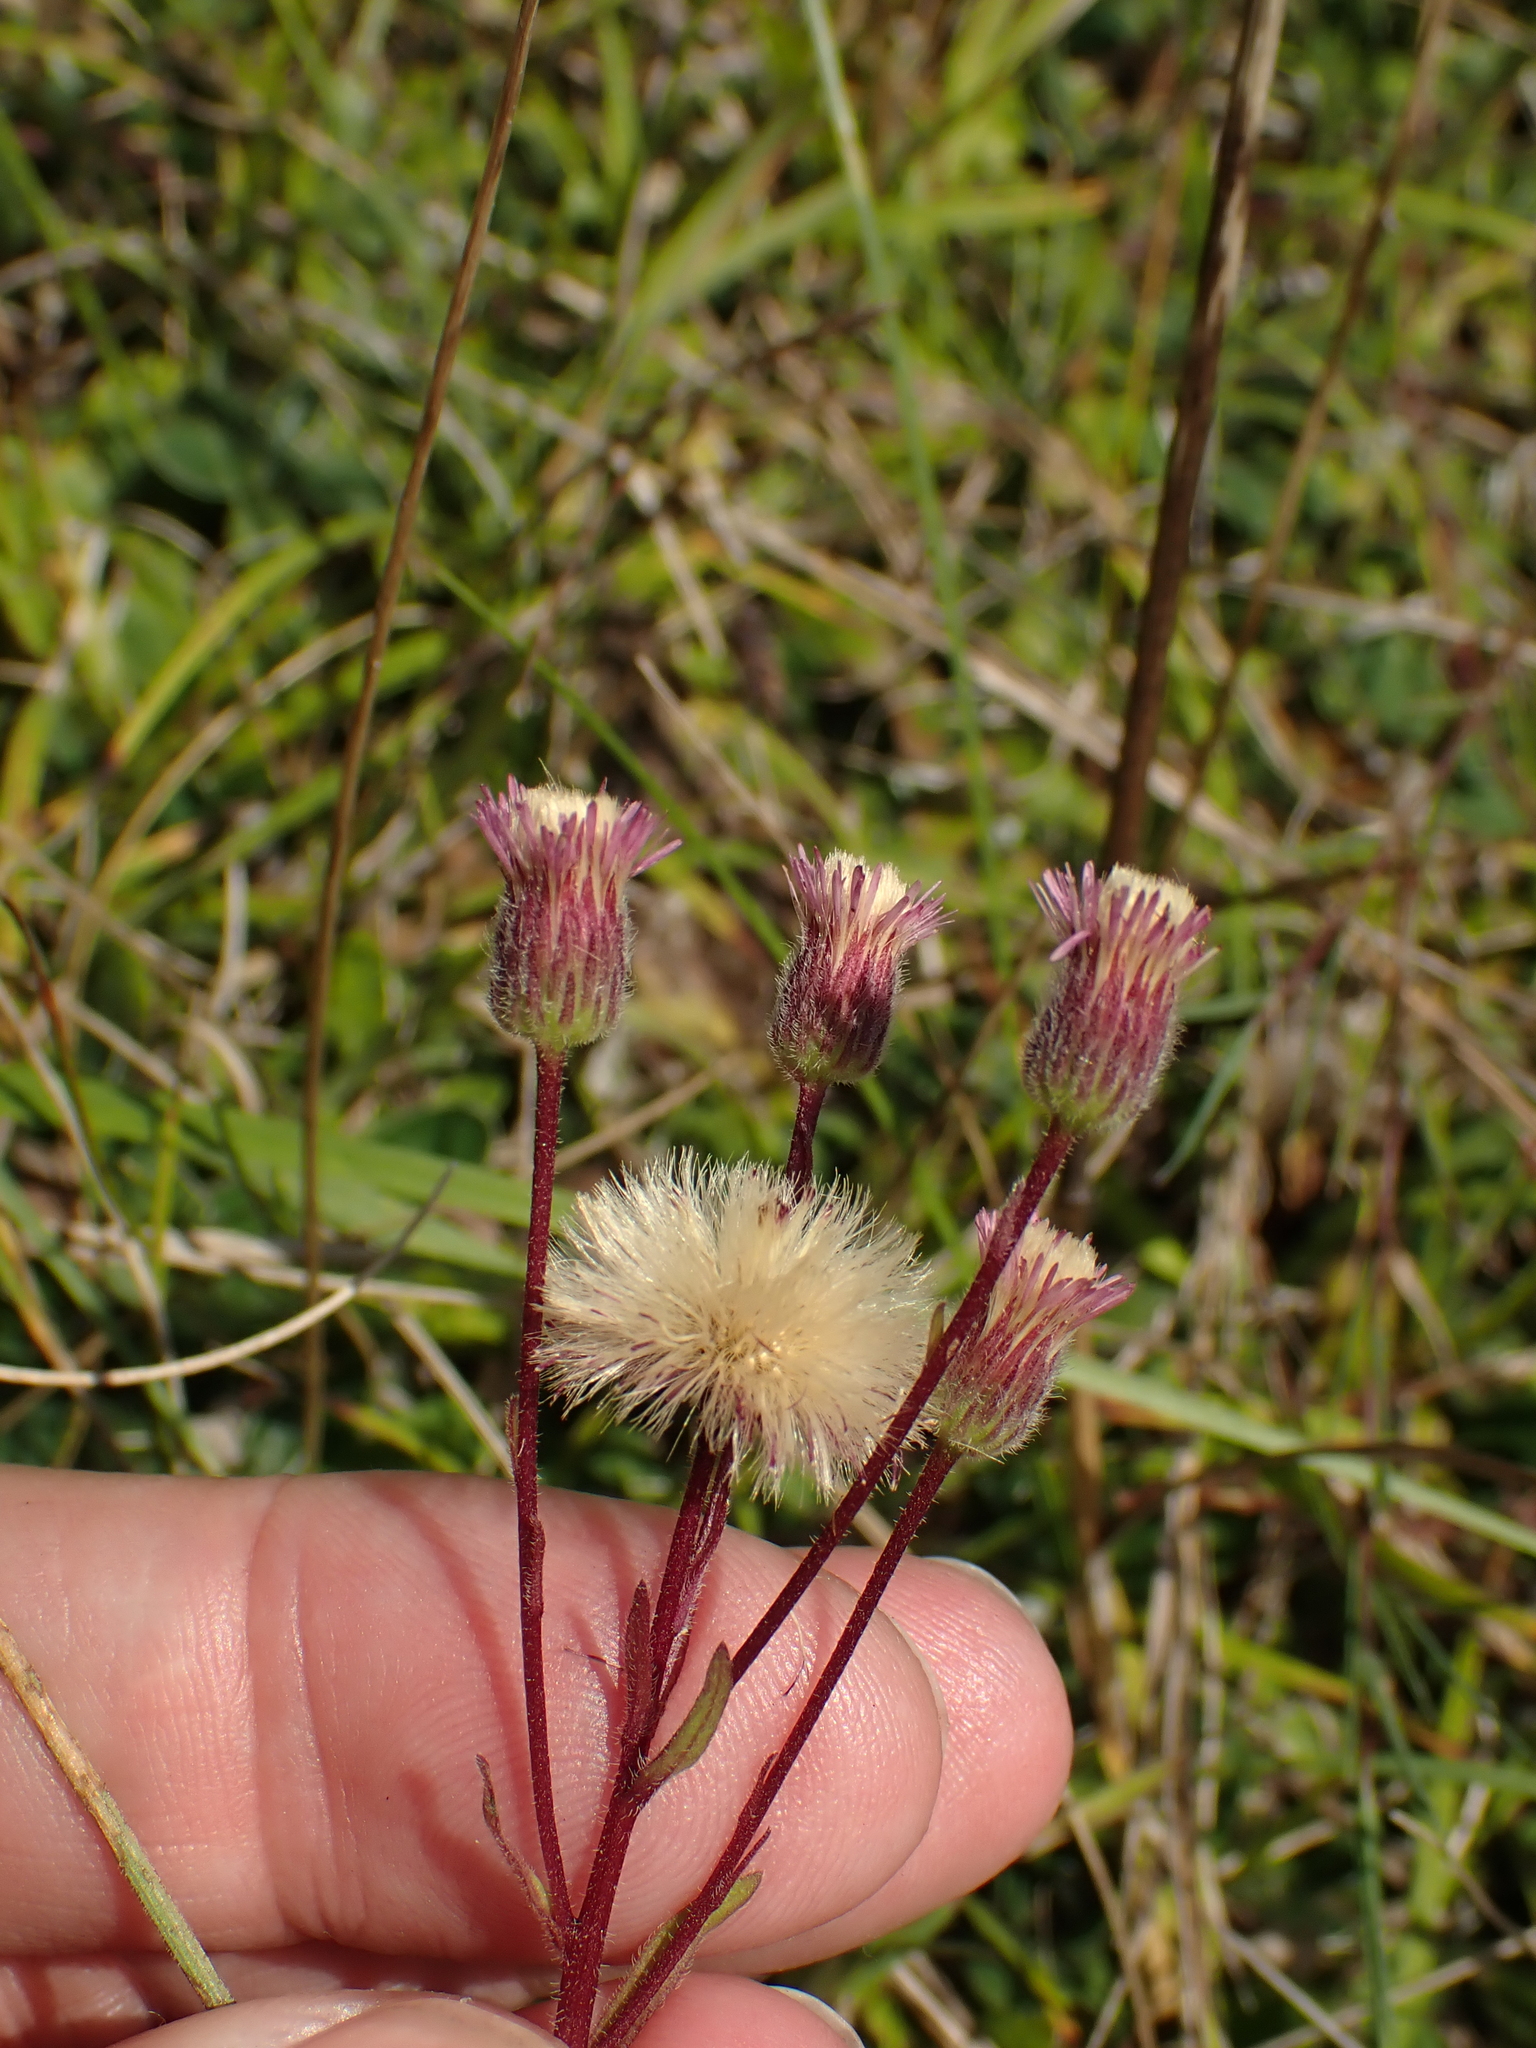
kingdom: Plantae
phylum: Tracheophyta
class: Magnoliopsida
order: Asterales
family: Asteraceae
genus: Erigeron
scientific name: Erigeron acris
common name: Blue fleabane
